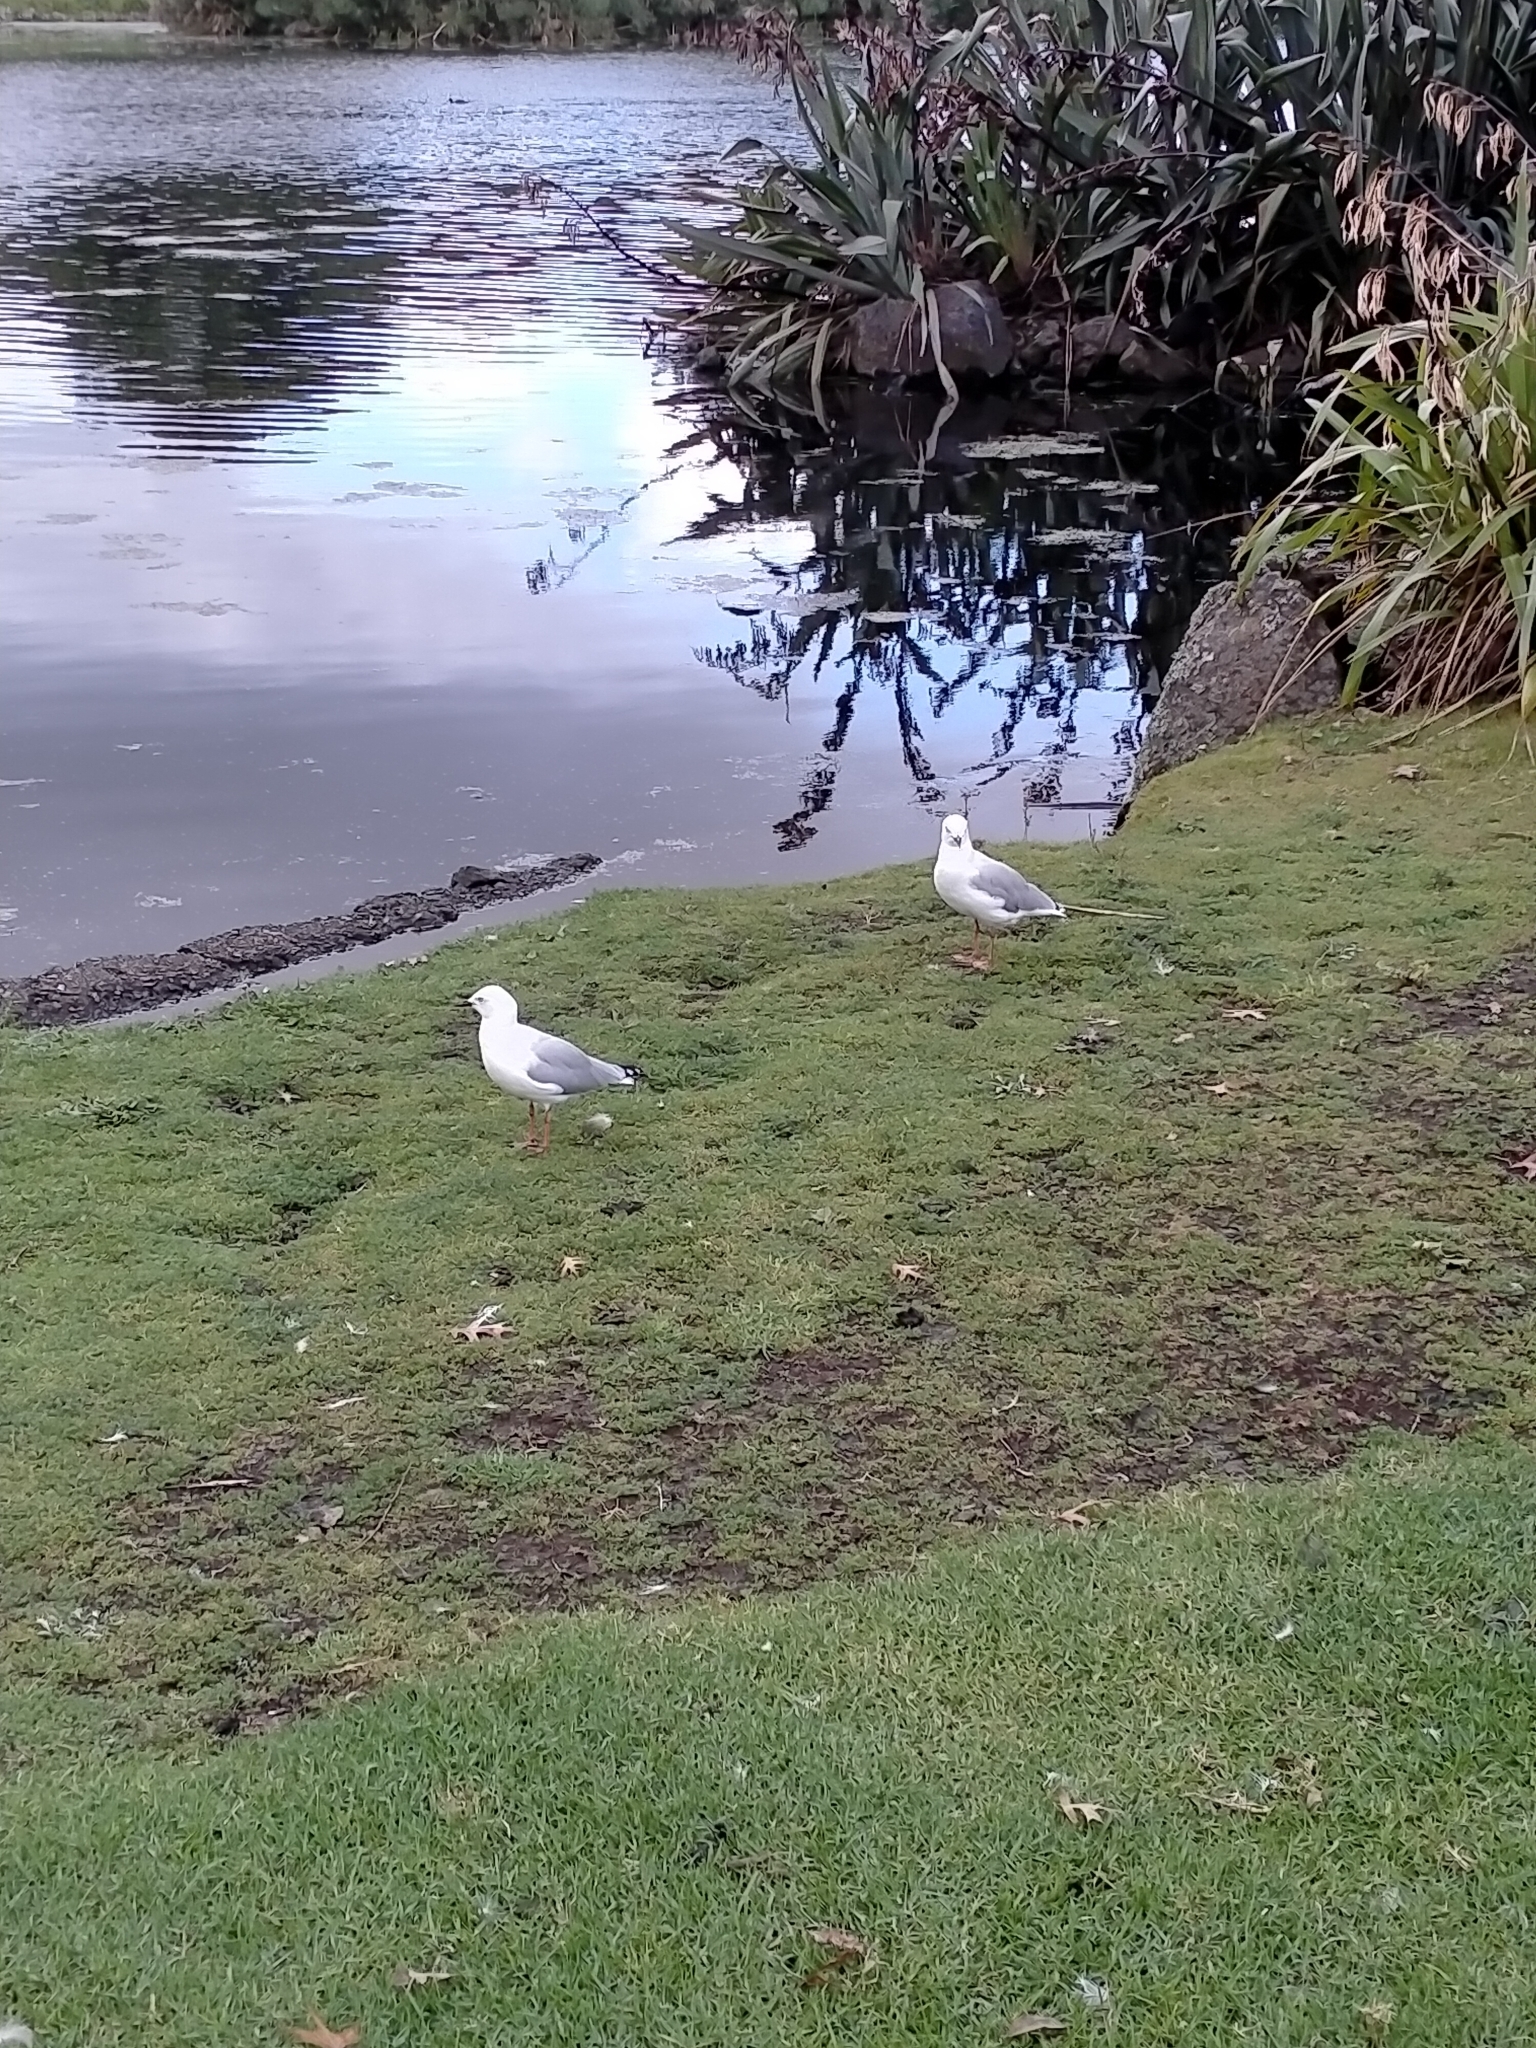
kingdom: Animalia
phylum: Chordata
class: Aves
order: Charadriiformes
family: Laridae
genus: Chroicocephalus
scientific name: Chroicocephalus bulleri
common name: Black-billed gull
